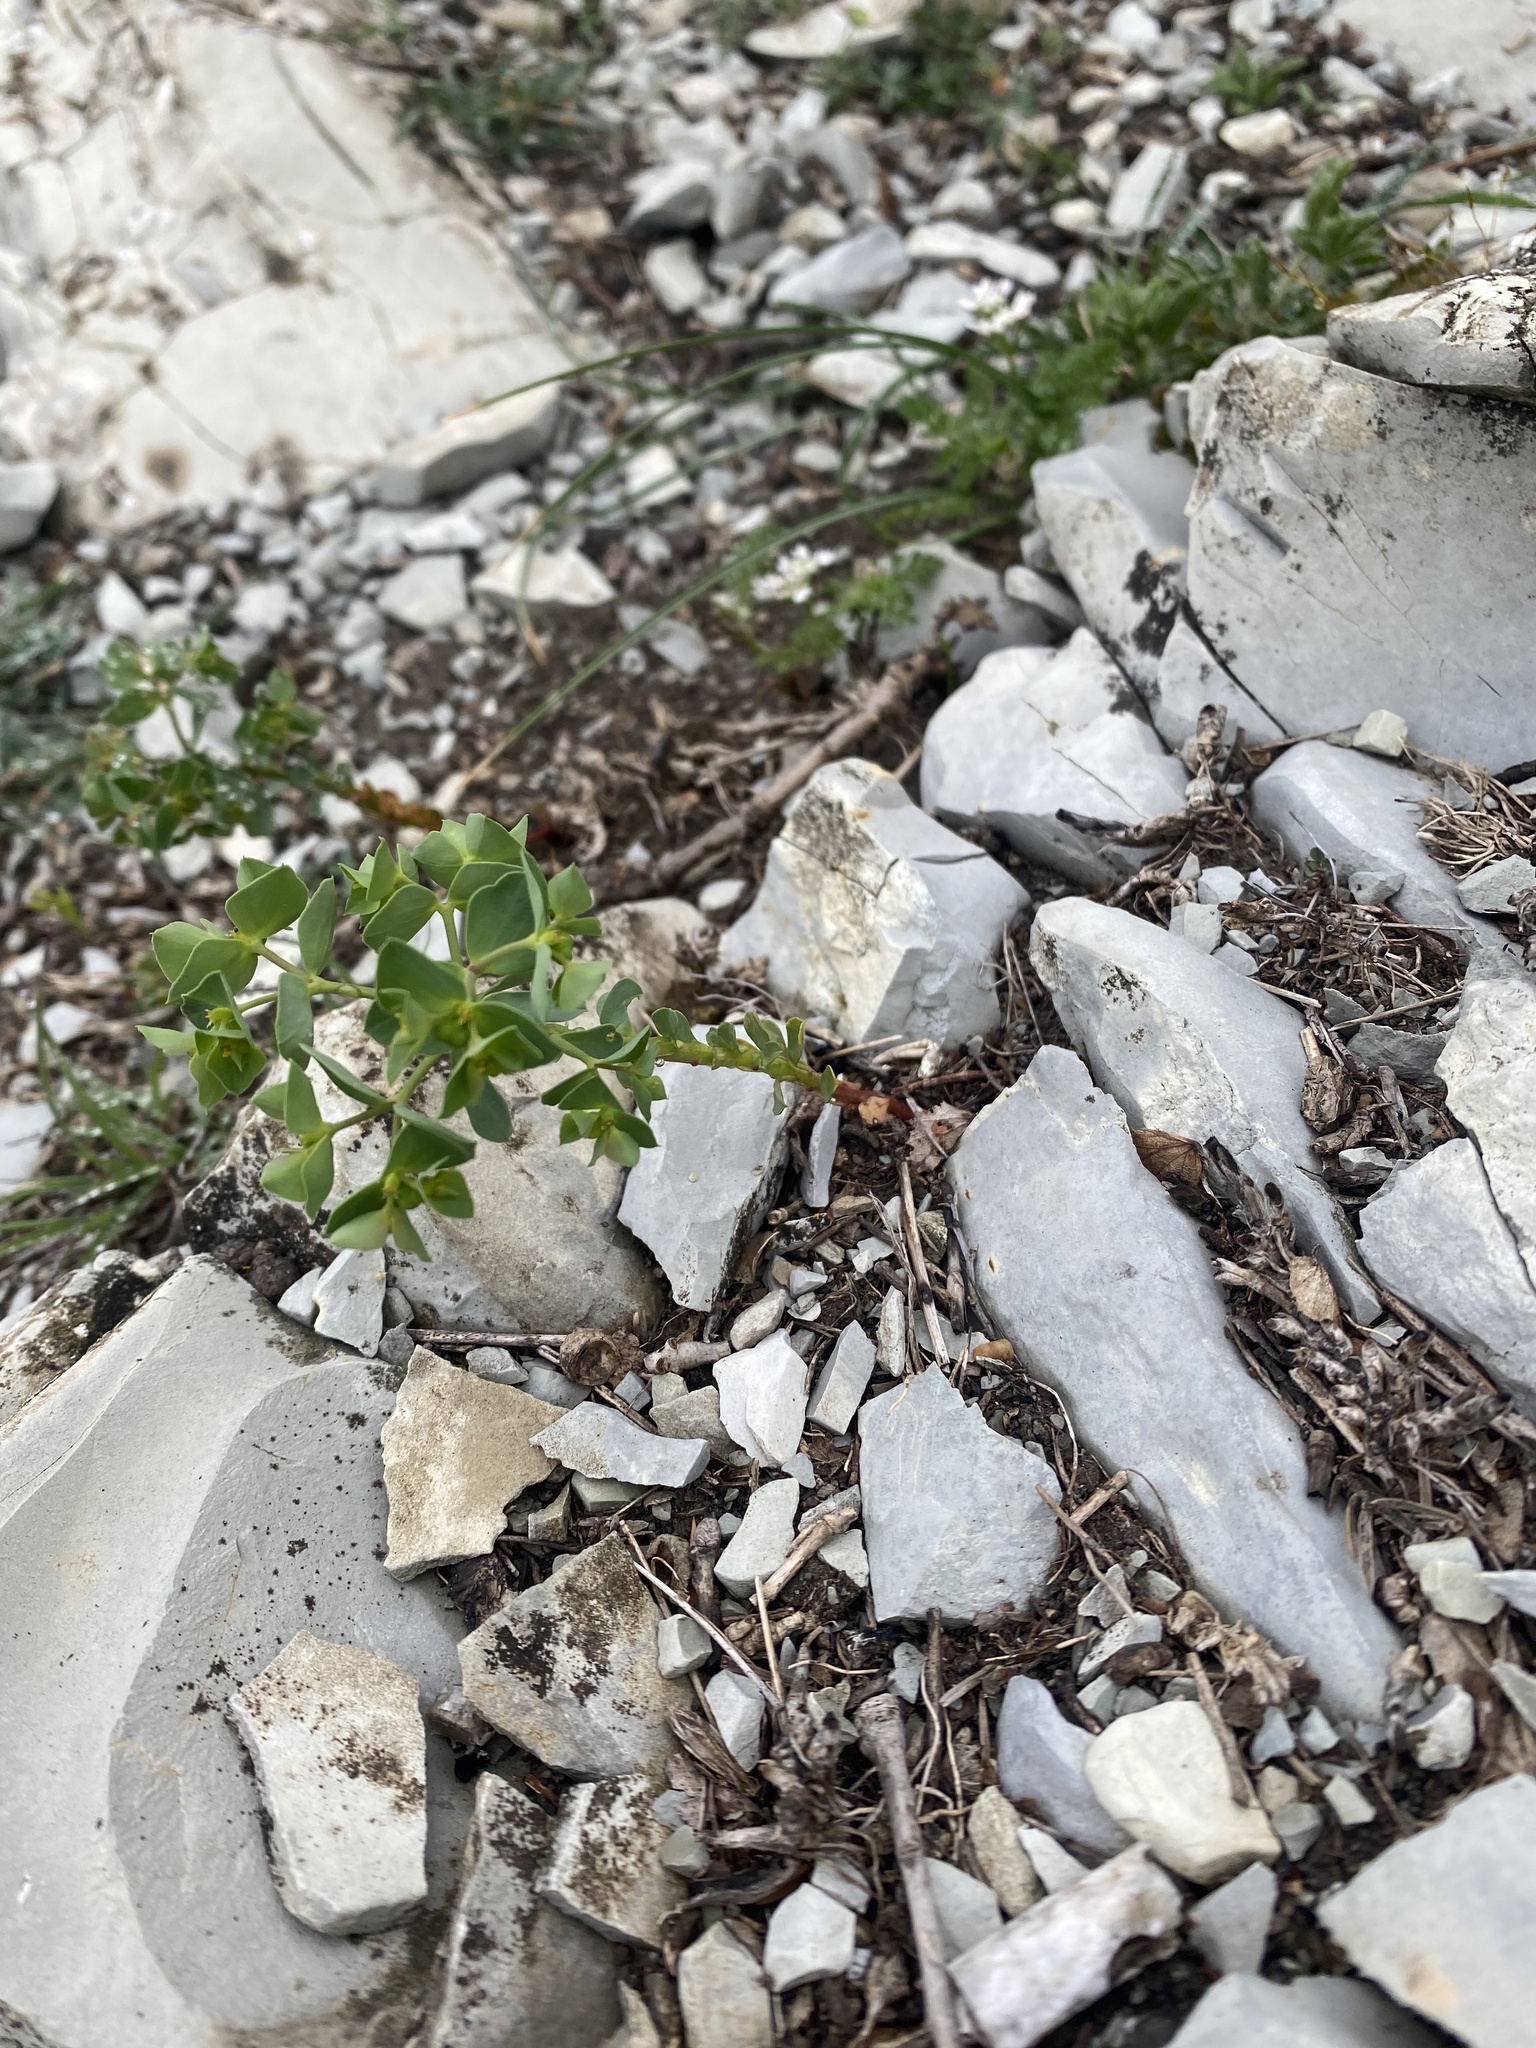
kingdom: Plantae
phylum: Tracheophyta
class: Magnoliopsida
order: Malpighiales
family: Euphorbiaceae
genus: Euphorbia
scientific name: Euphorbia falcata
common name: Sickle spurge
